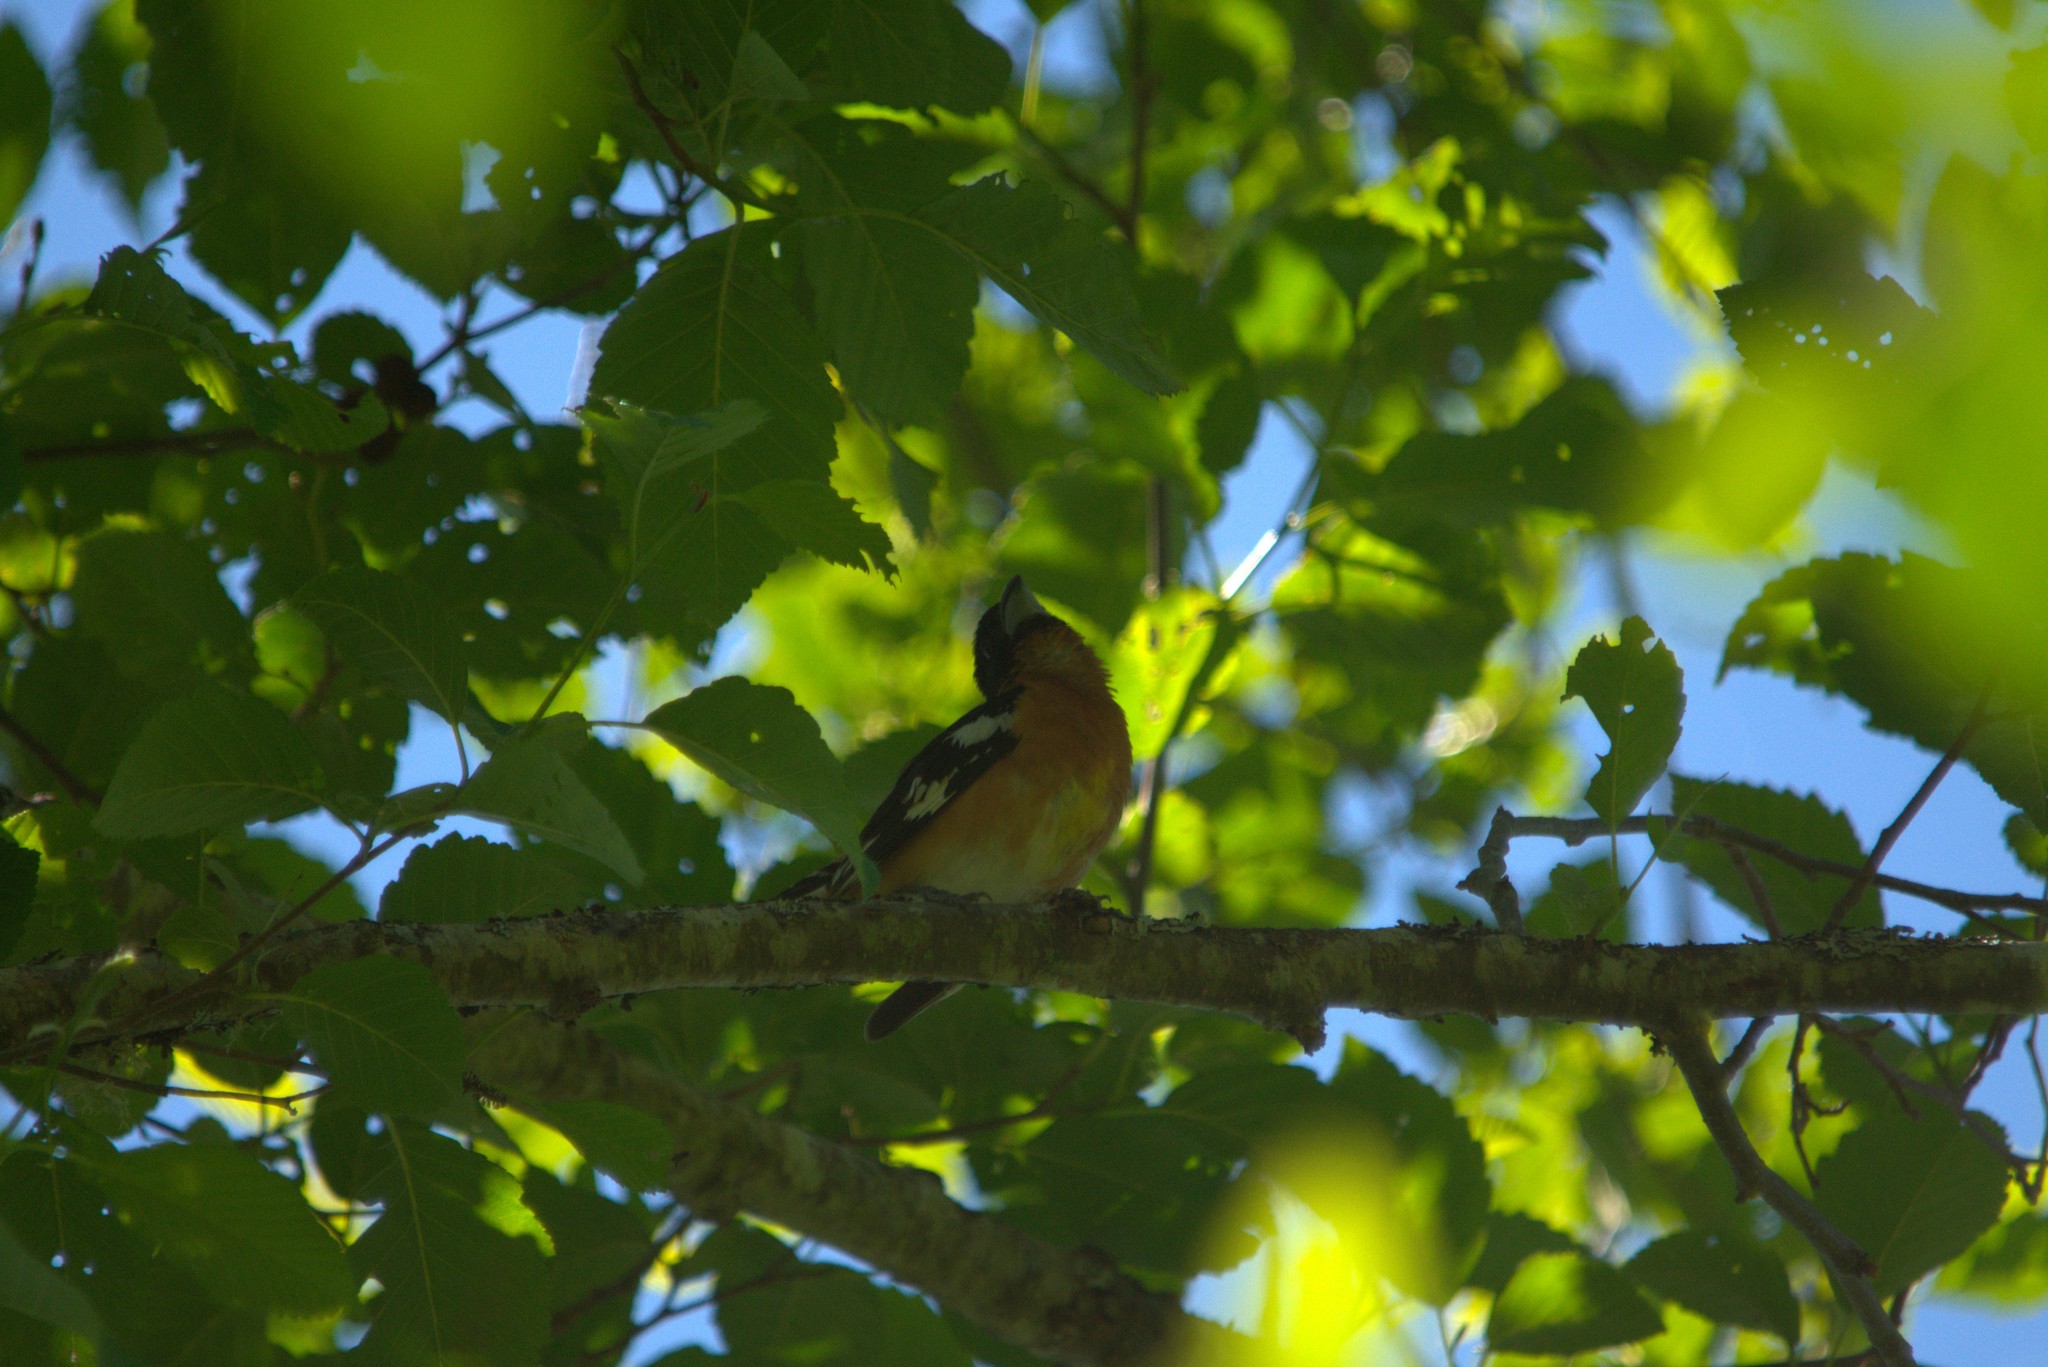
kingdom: Animalia
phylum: Chordata
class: Aves
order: Passeriformes
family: Cardinalidae
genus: Pheucticus
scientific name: Pheucticus melanocephalus
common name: Black-headed grosbeak
